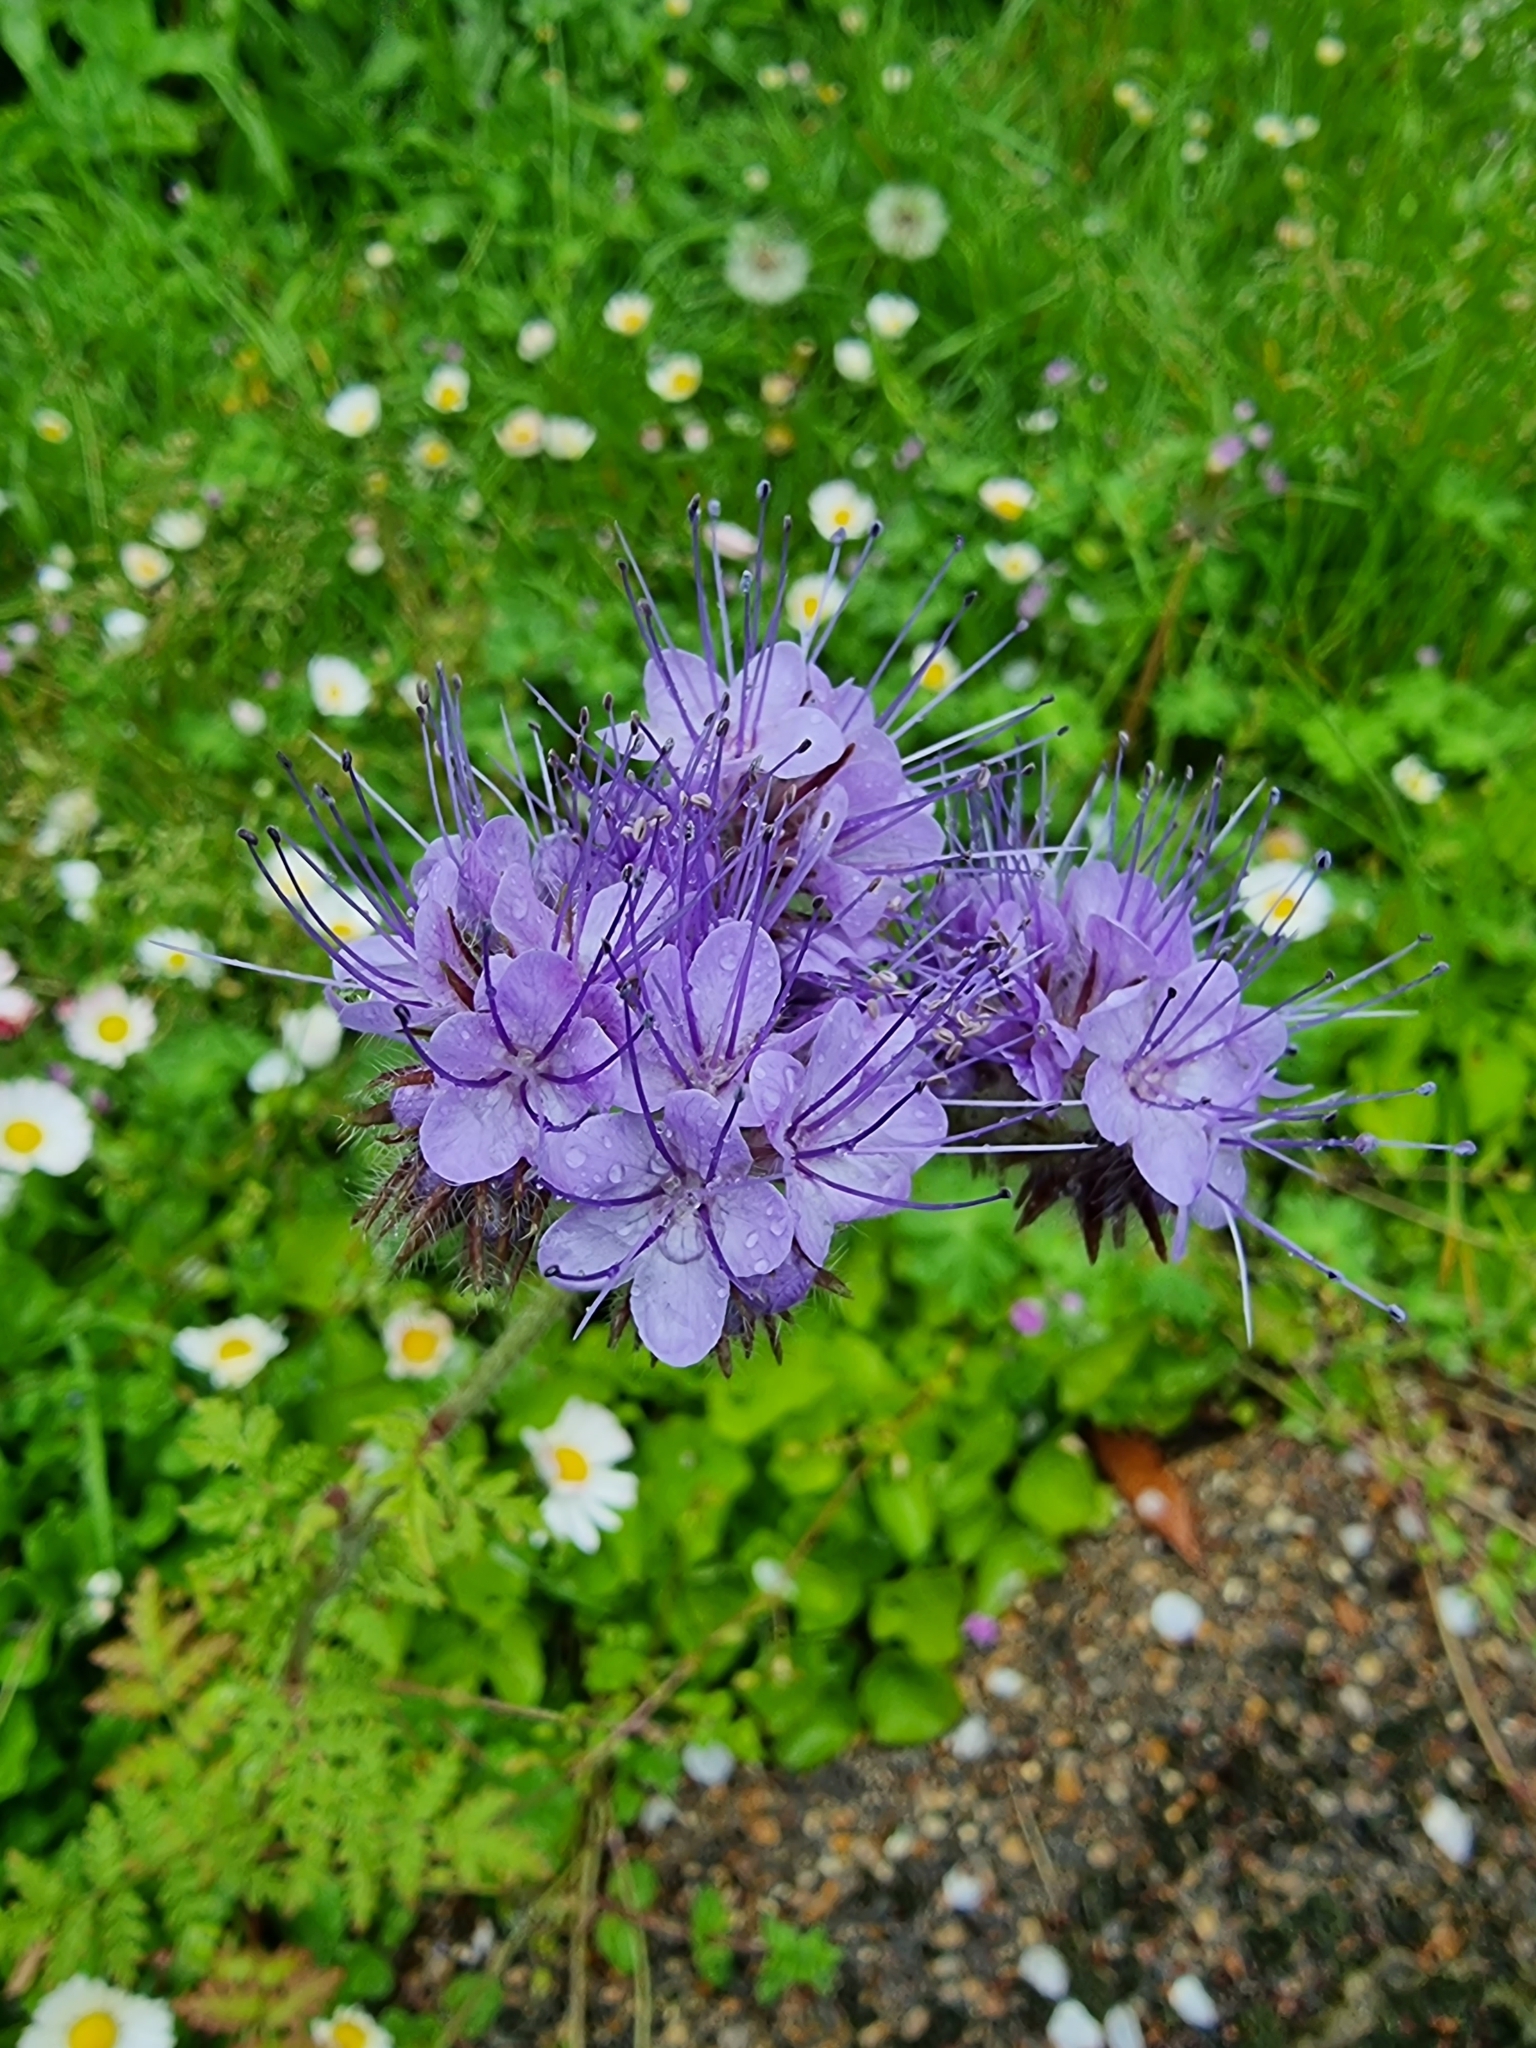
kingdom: Plantae
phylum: Tracheophyta
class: Magnoliopsida
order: Boraginales
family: Hydrophyllaceae
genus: Phacelia
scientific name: Phacelia tanacetifolia
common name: Phacelia
